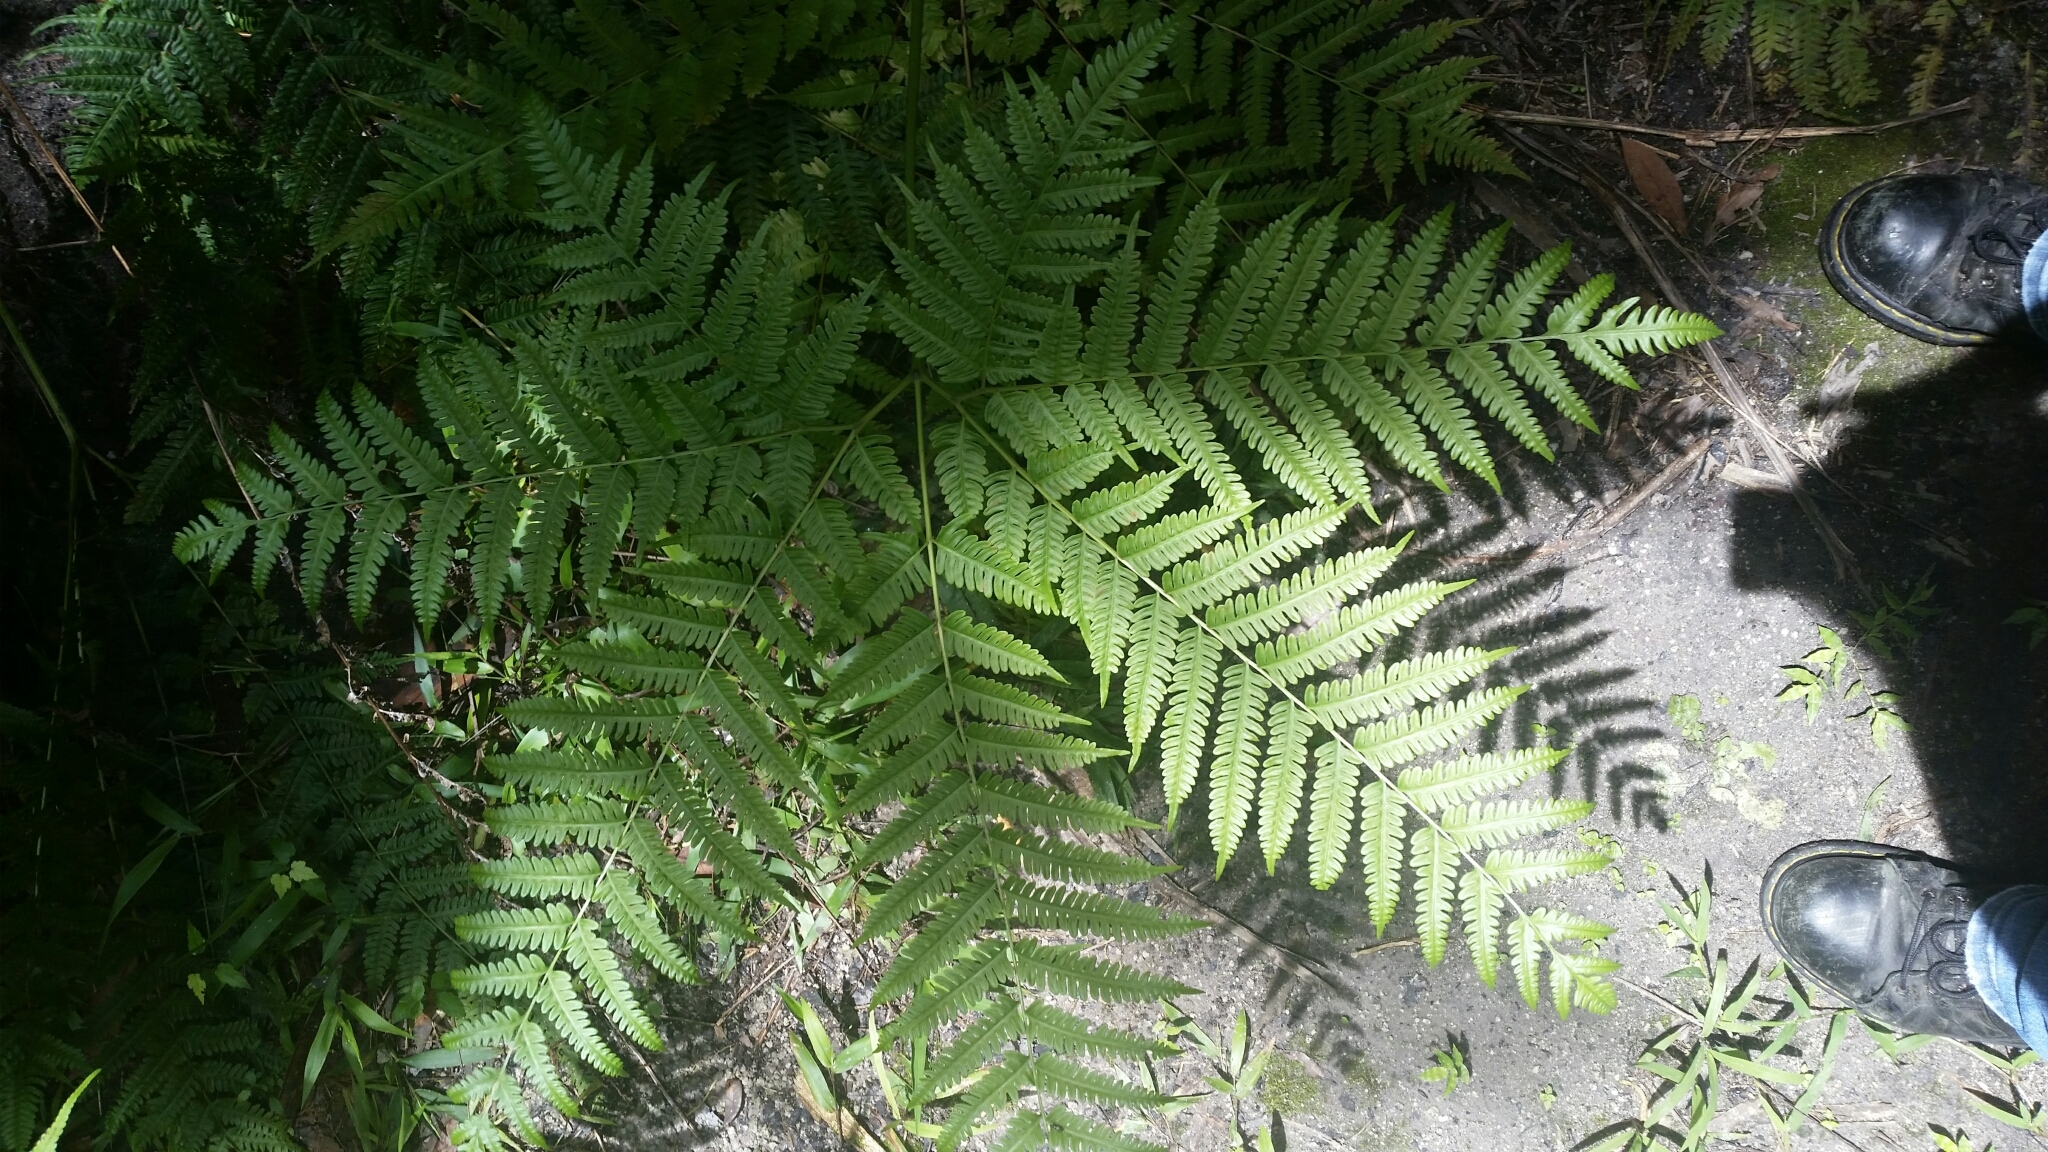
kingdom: Plantae
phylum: Tracheophyta
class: Polypodiopsida
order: Polypodiales
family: Pteridaceae
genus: Pteris
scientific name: Pteris tripartita
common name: Giant brake
